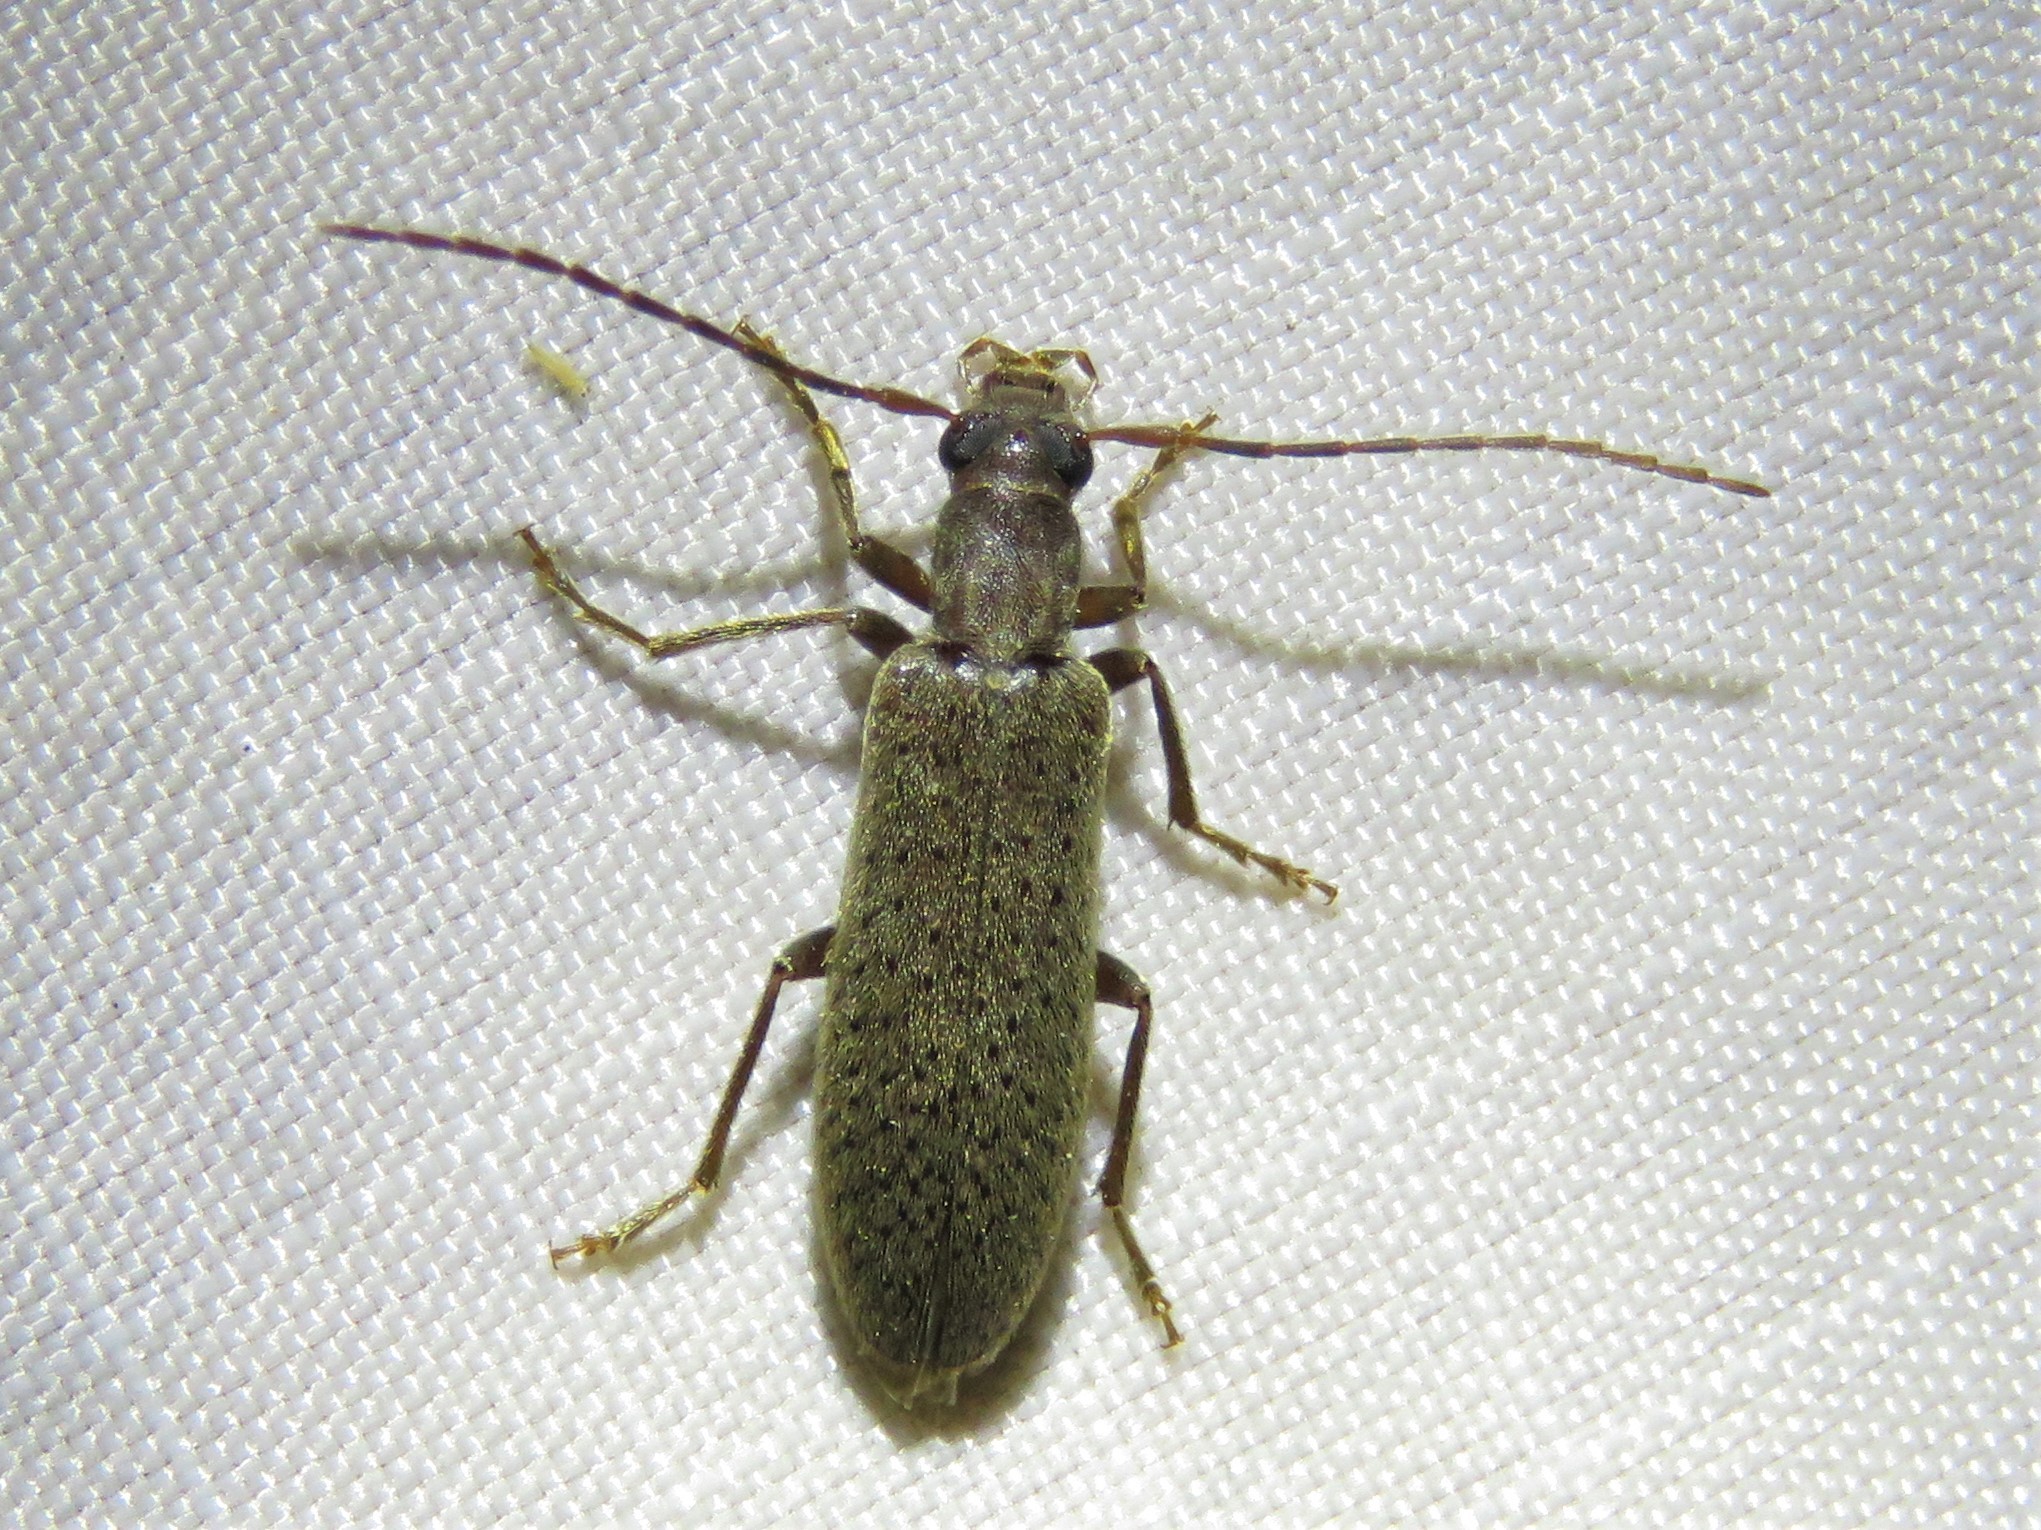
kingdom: Animalia
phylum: Arthropoda
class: Insecta
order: Coleoptera
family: Oedemeridae
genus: Sparedrus
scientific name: Sparedrus aspersus
